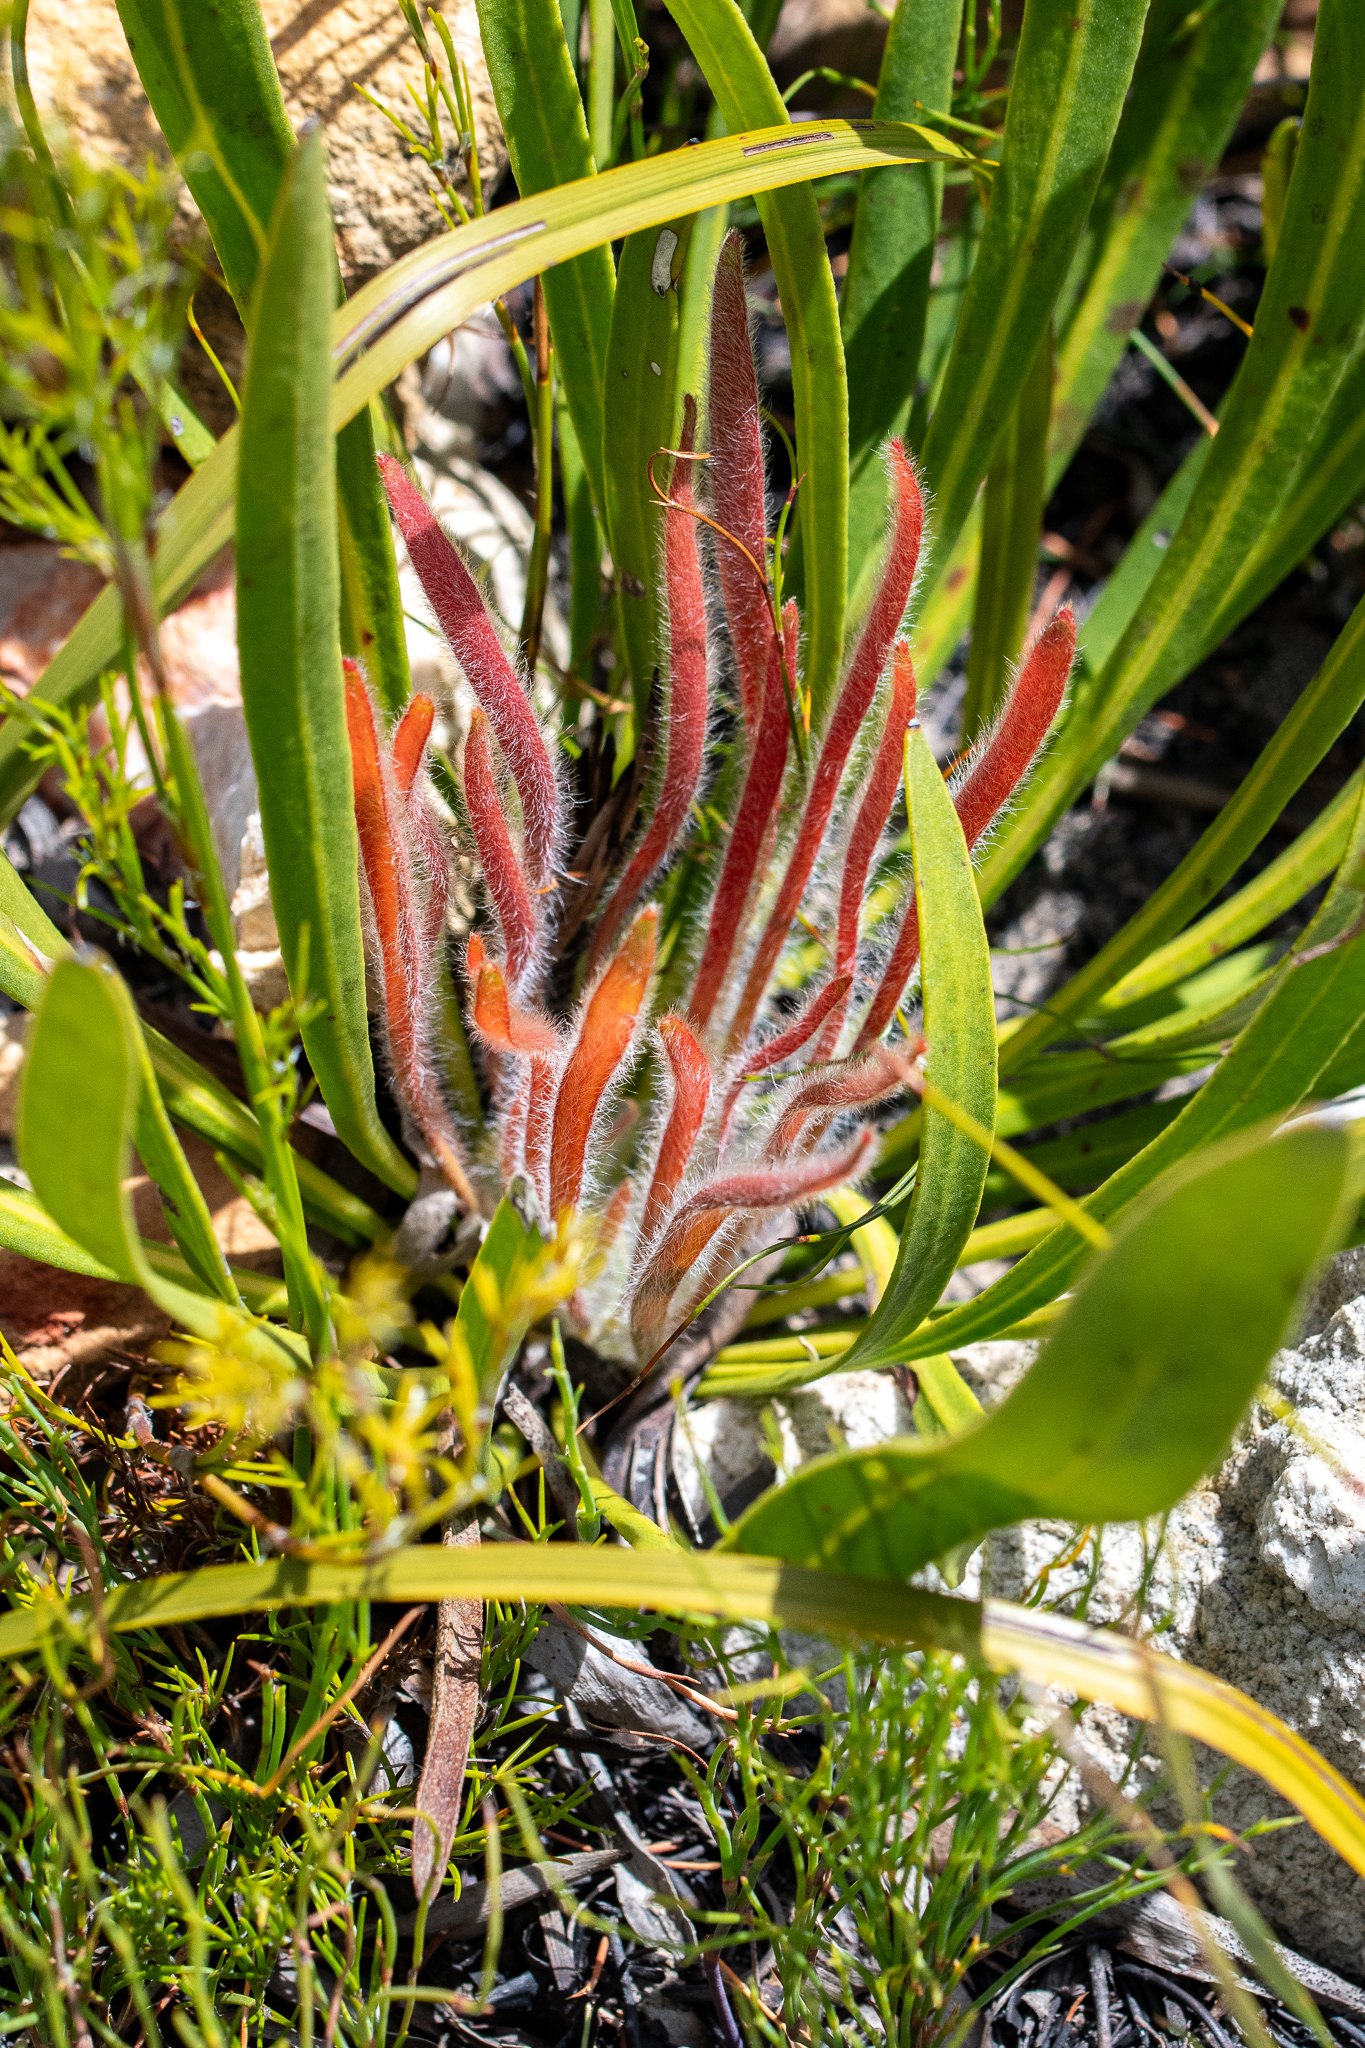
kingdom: Plantae
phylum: Tracheophyta
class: Magnoliopsida
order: Proteales
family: Proteaceae
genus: Protea
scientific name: Protea scabra
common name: Sandpaper-leaf sugarbush
